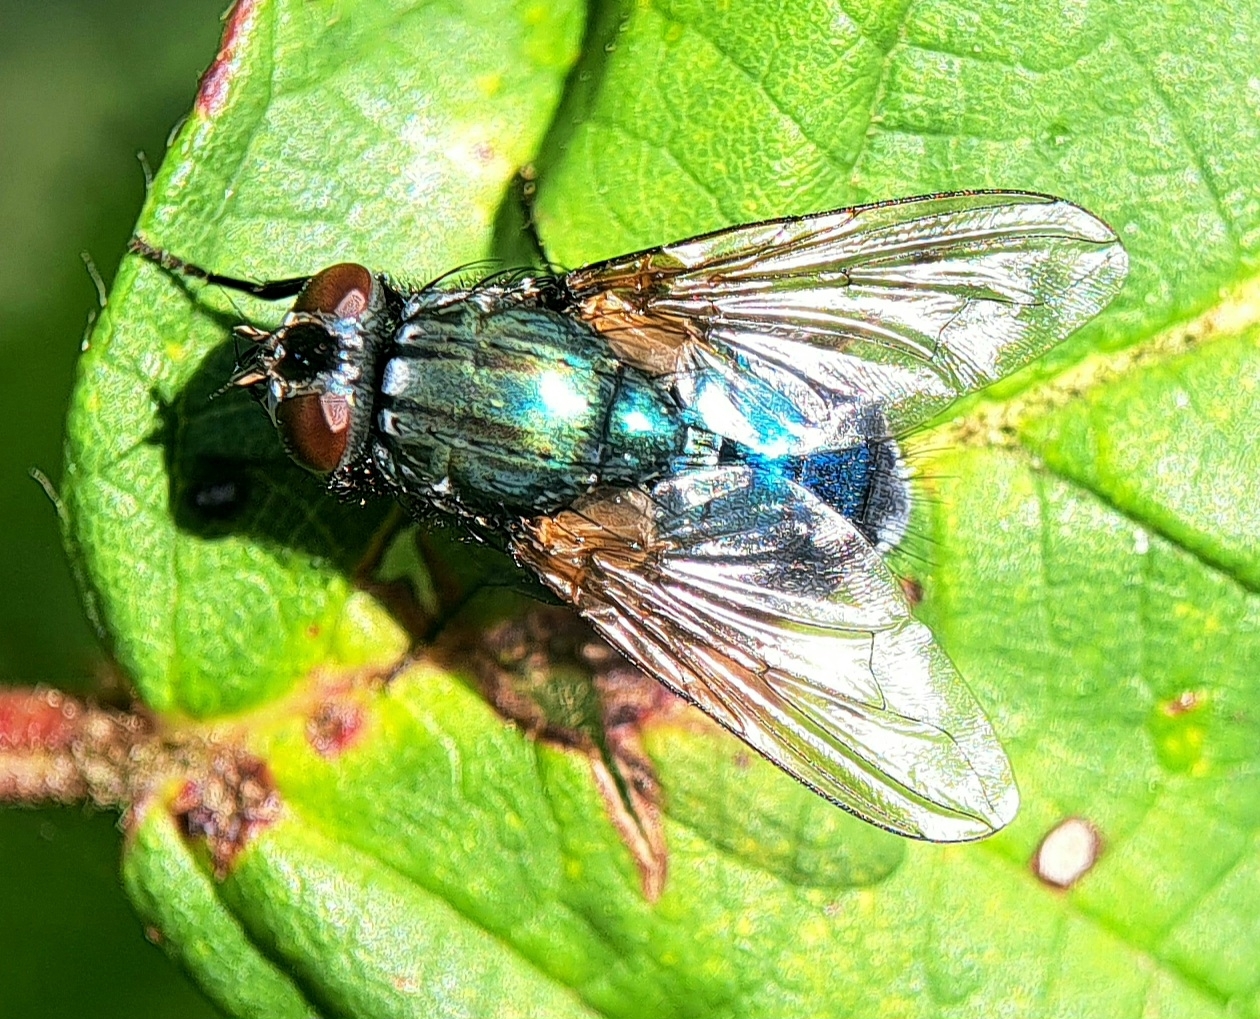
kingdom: Animalia
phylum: Arthropoda
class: Insecta
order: Diptera
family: Muscidae
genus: Dasyphora
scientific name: Dasyphora cyanella
